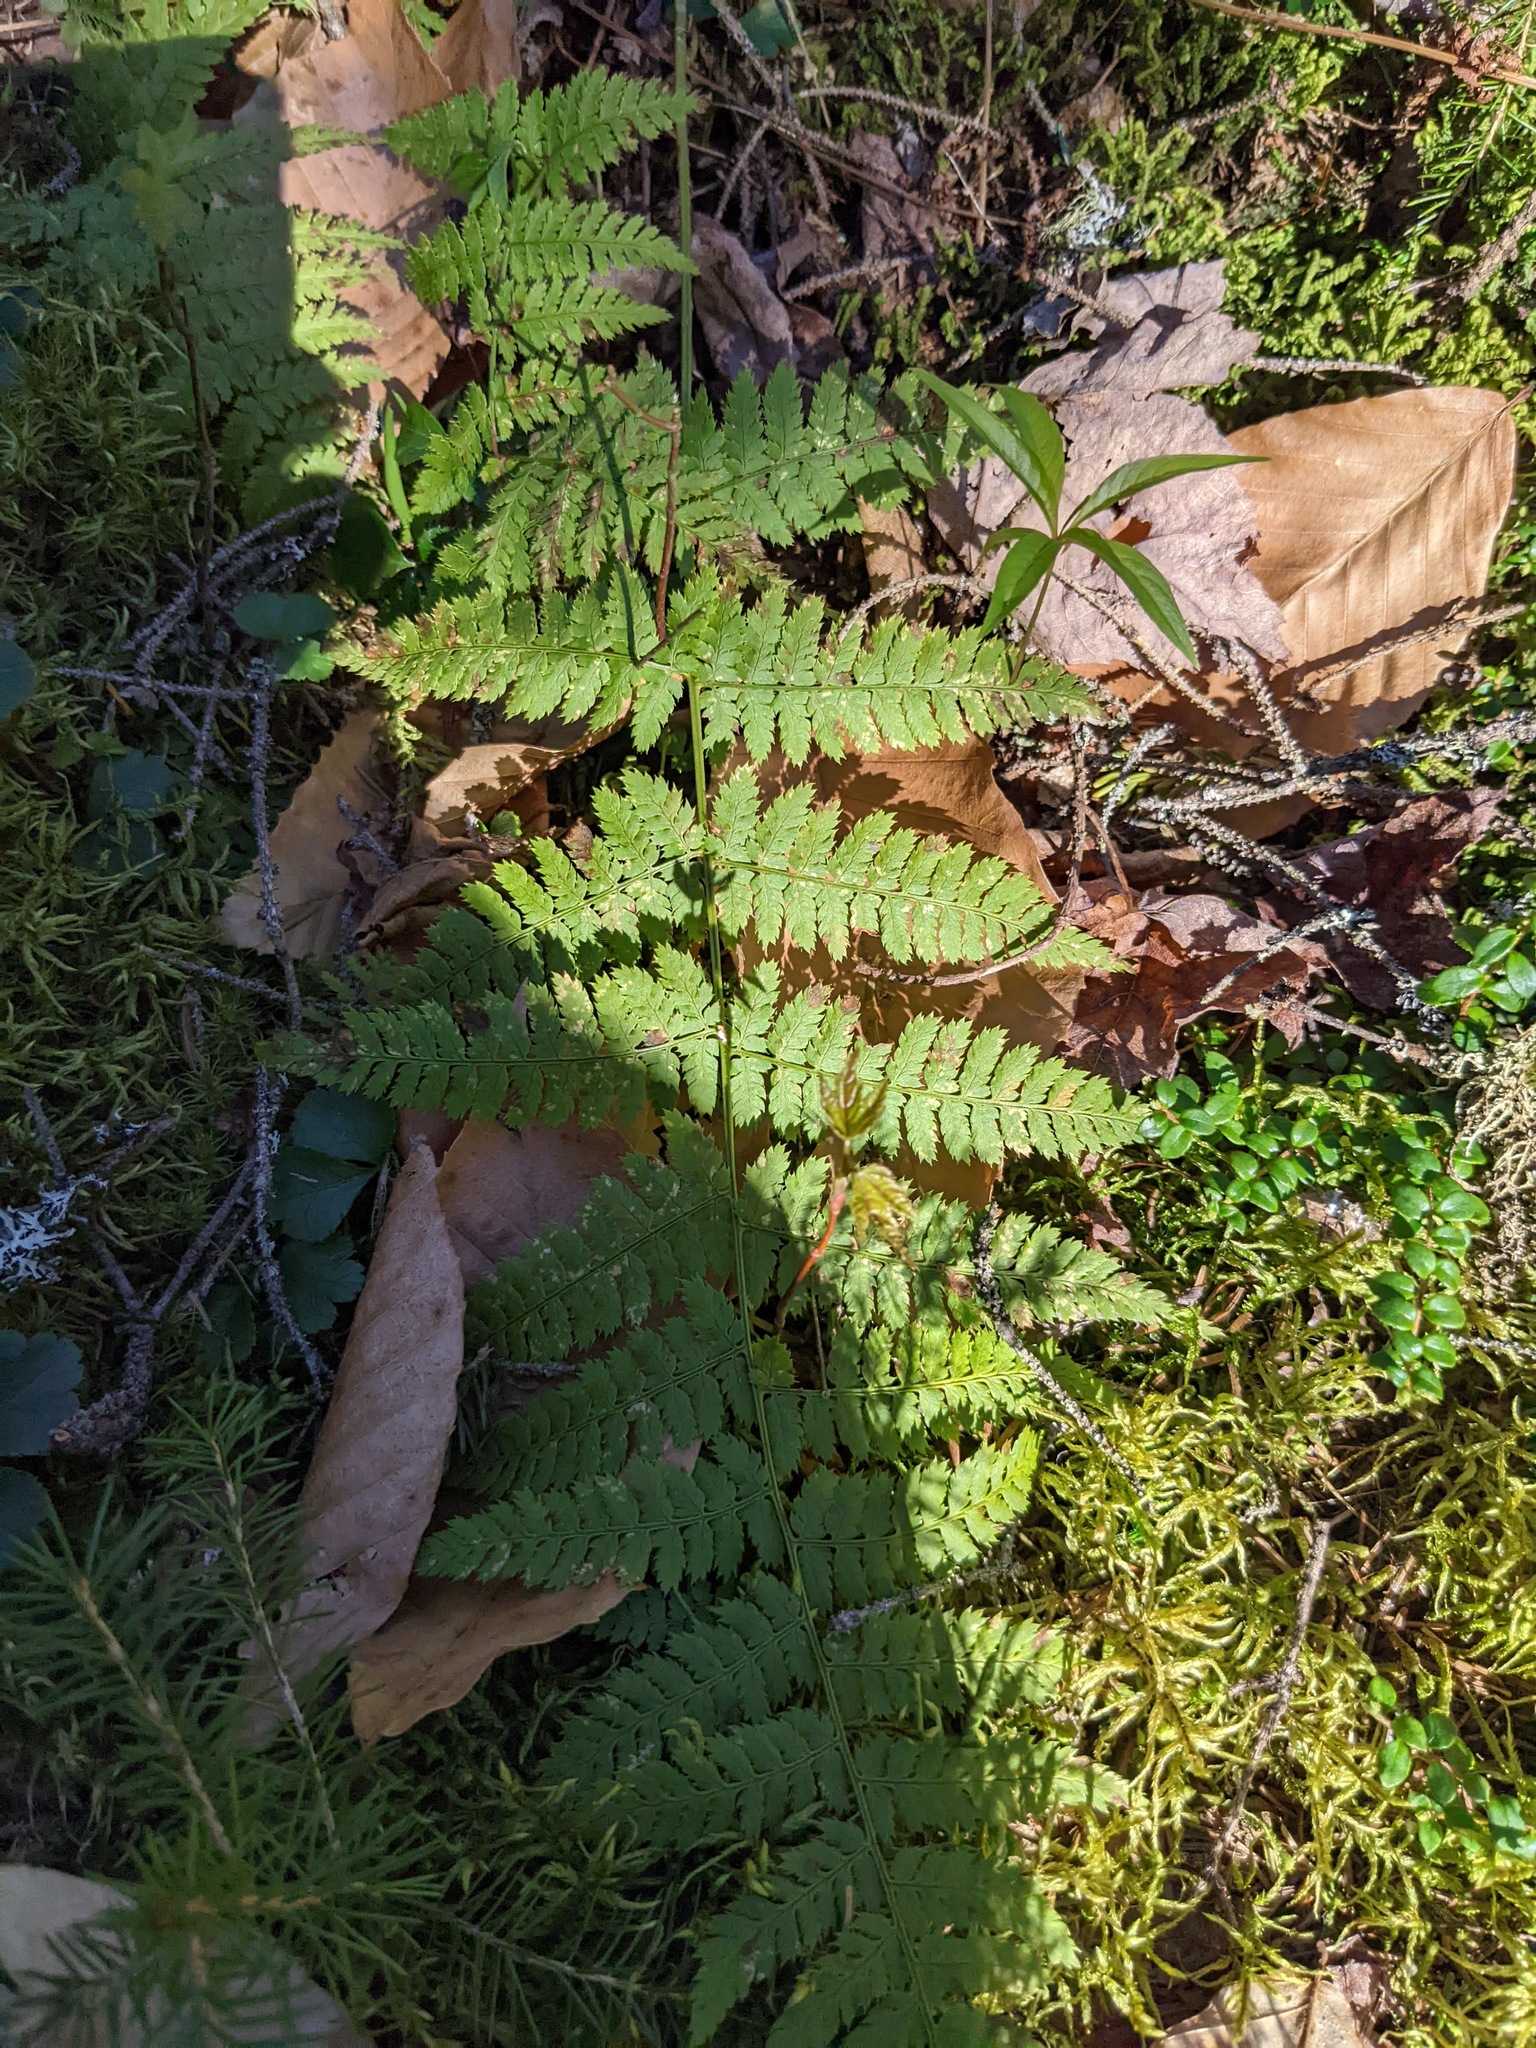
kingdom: Plantae
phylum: Tracheophyta
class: Polypodiopsida
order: Polypodiales
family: Dryopteridaceae
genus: Dryopteris
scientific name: Dryopteris intermedia
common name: Evergreen wood fern
